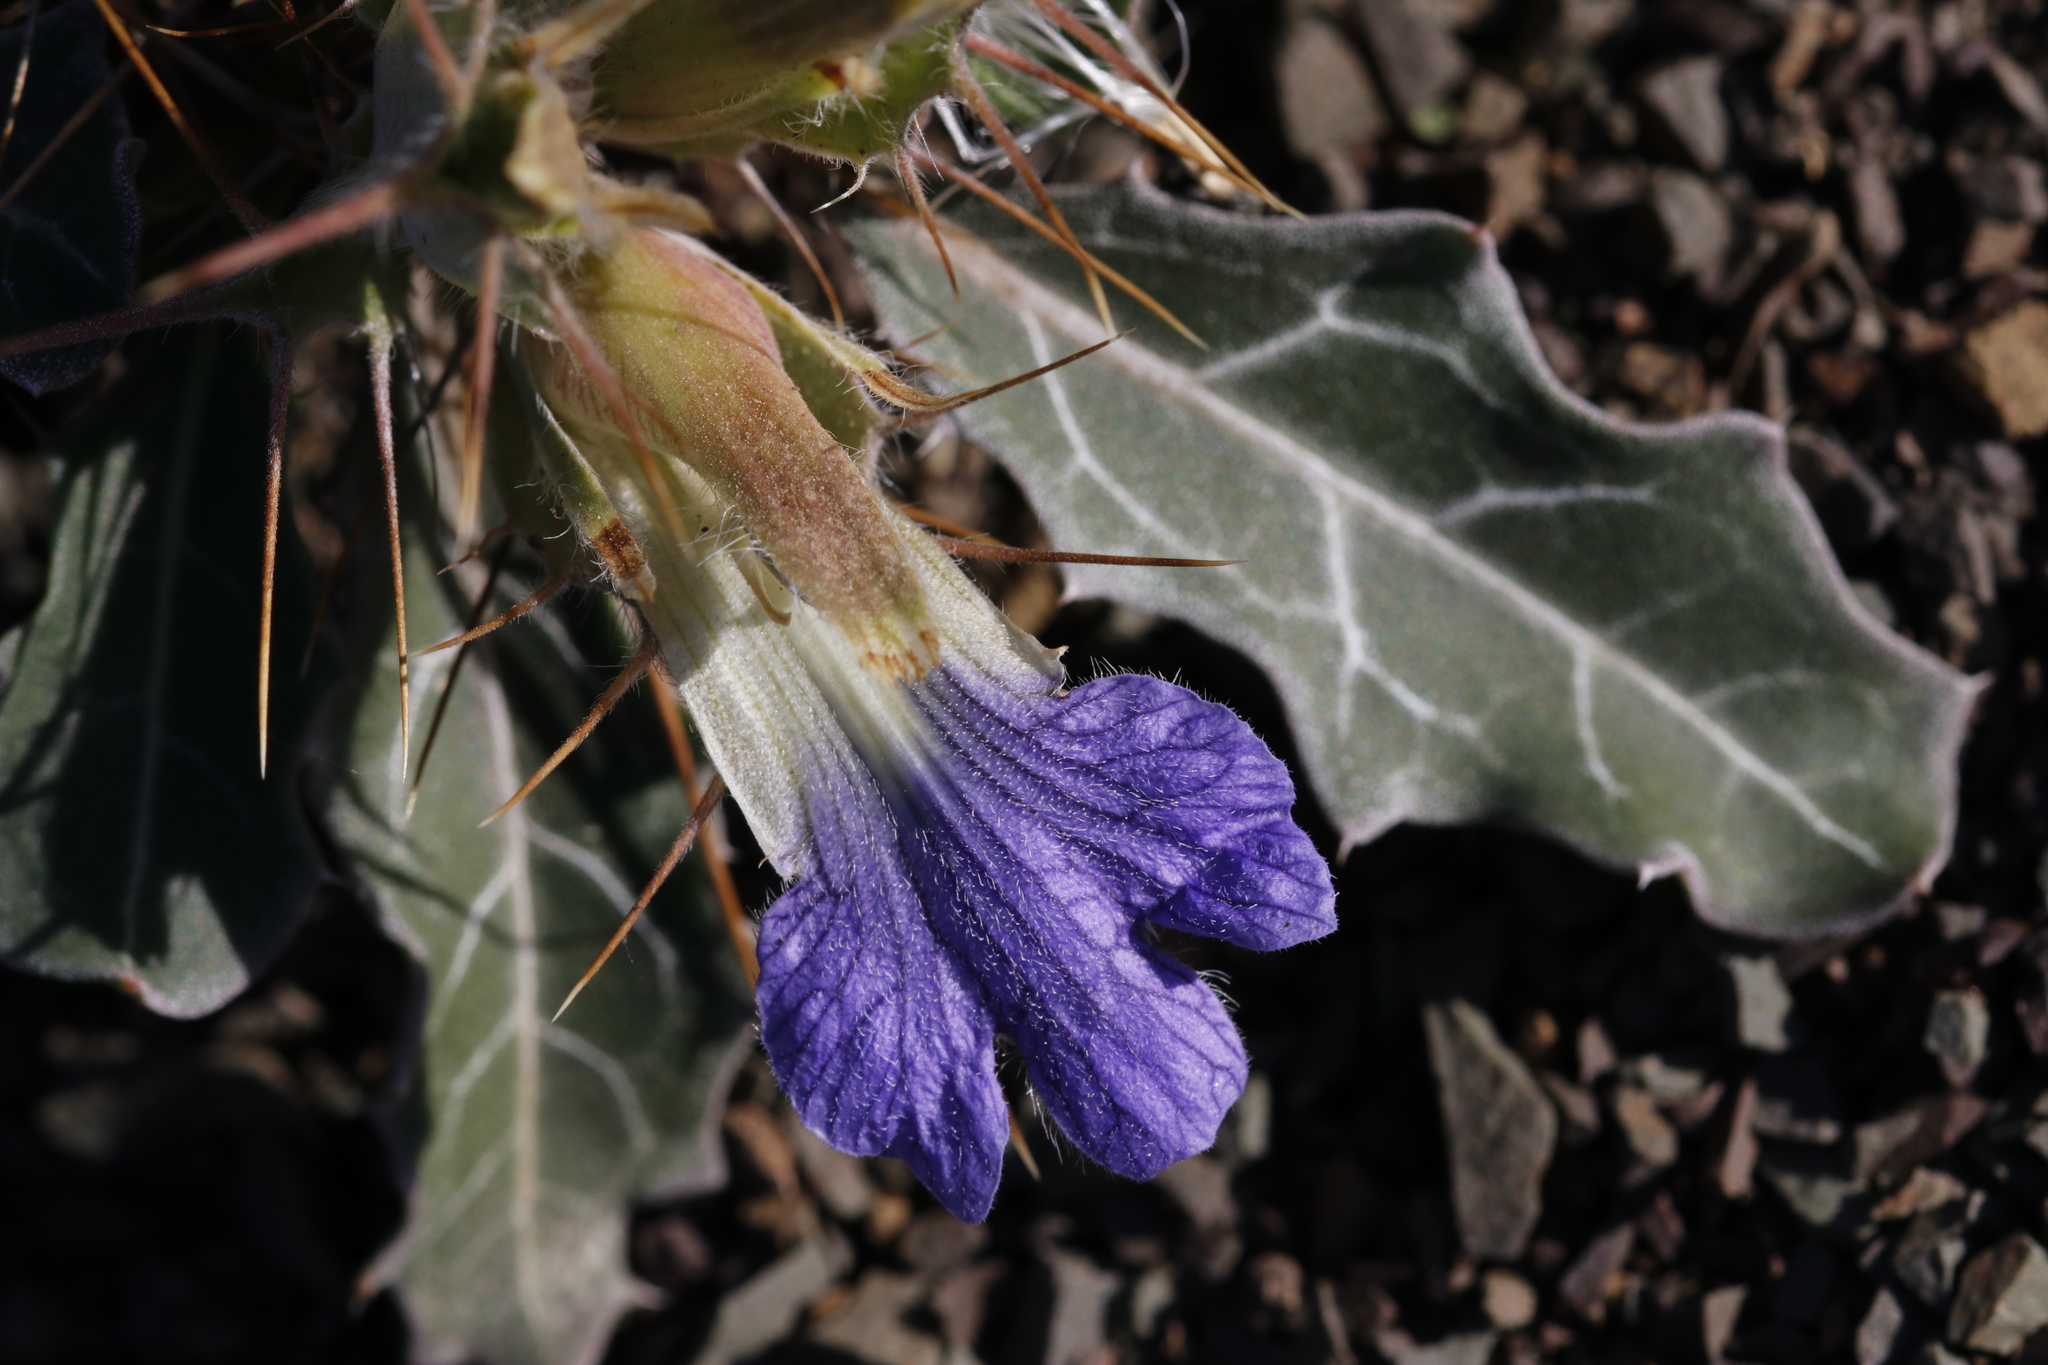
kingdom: Plantae
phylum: Tracheophyta
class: Magnoliopsida
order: Lamiales
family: Acanthaceae
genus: Blepharis
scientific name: Blepharis mitrata
